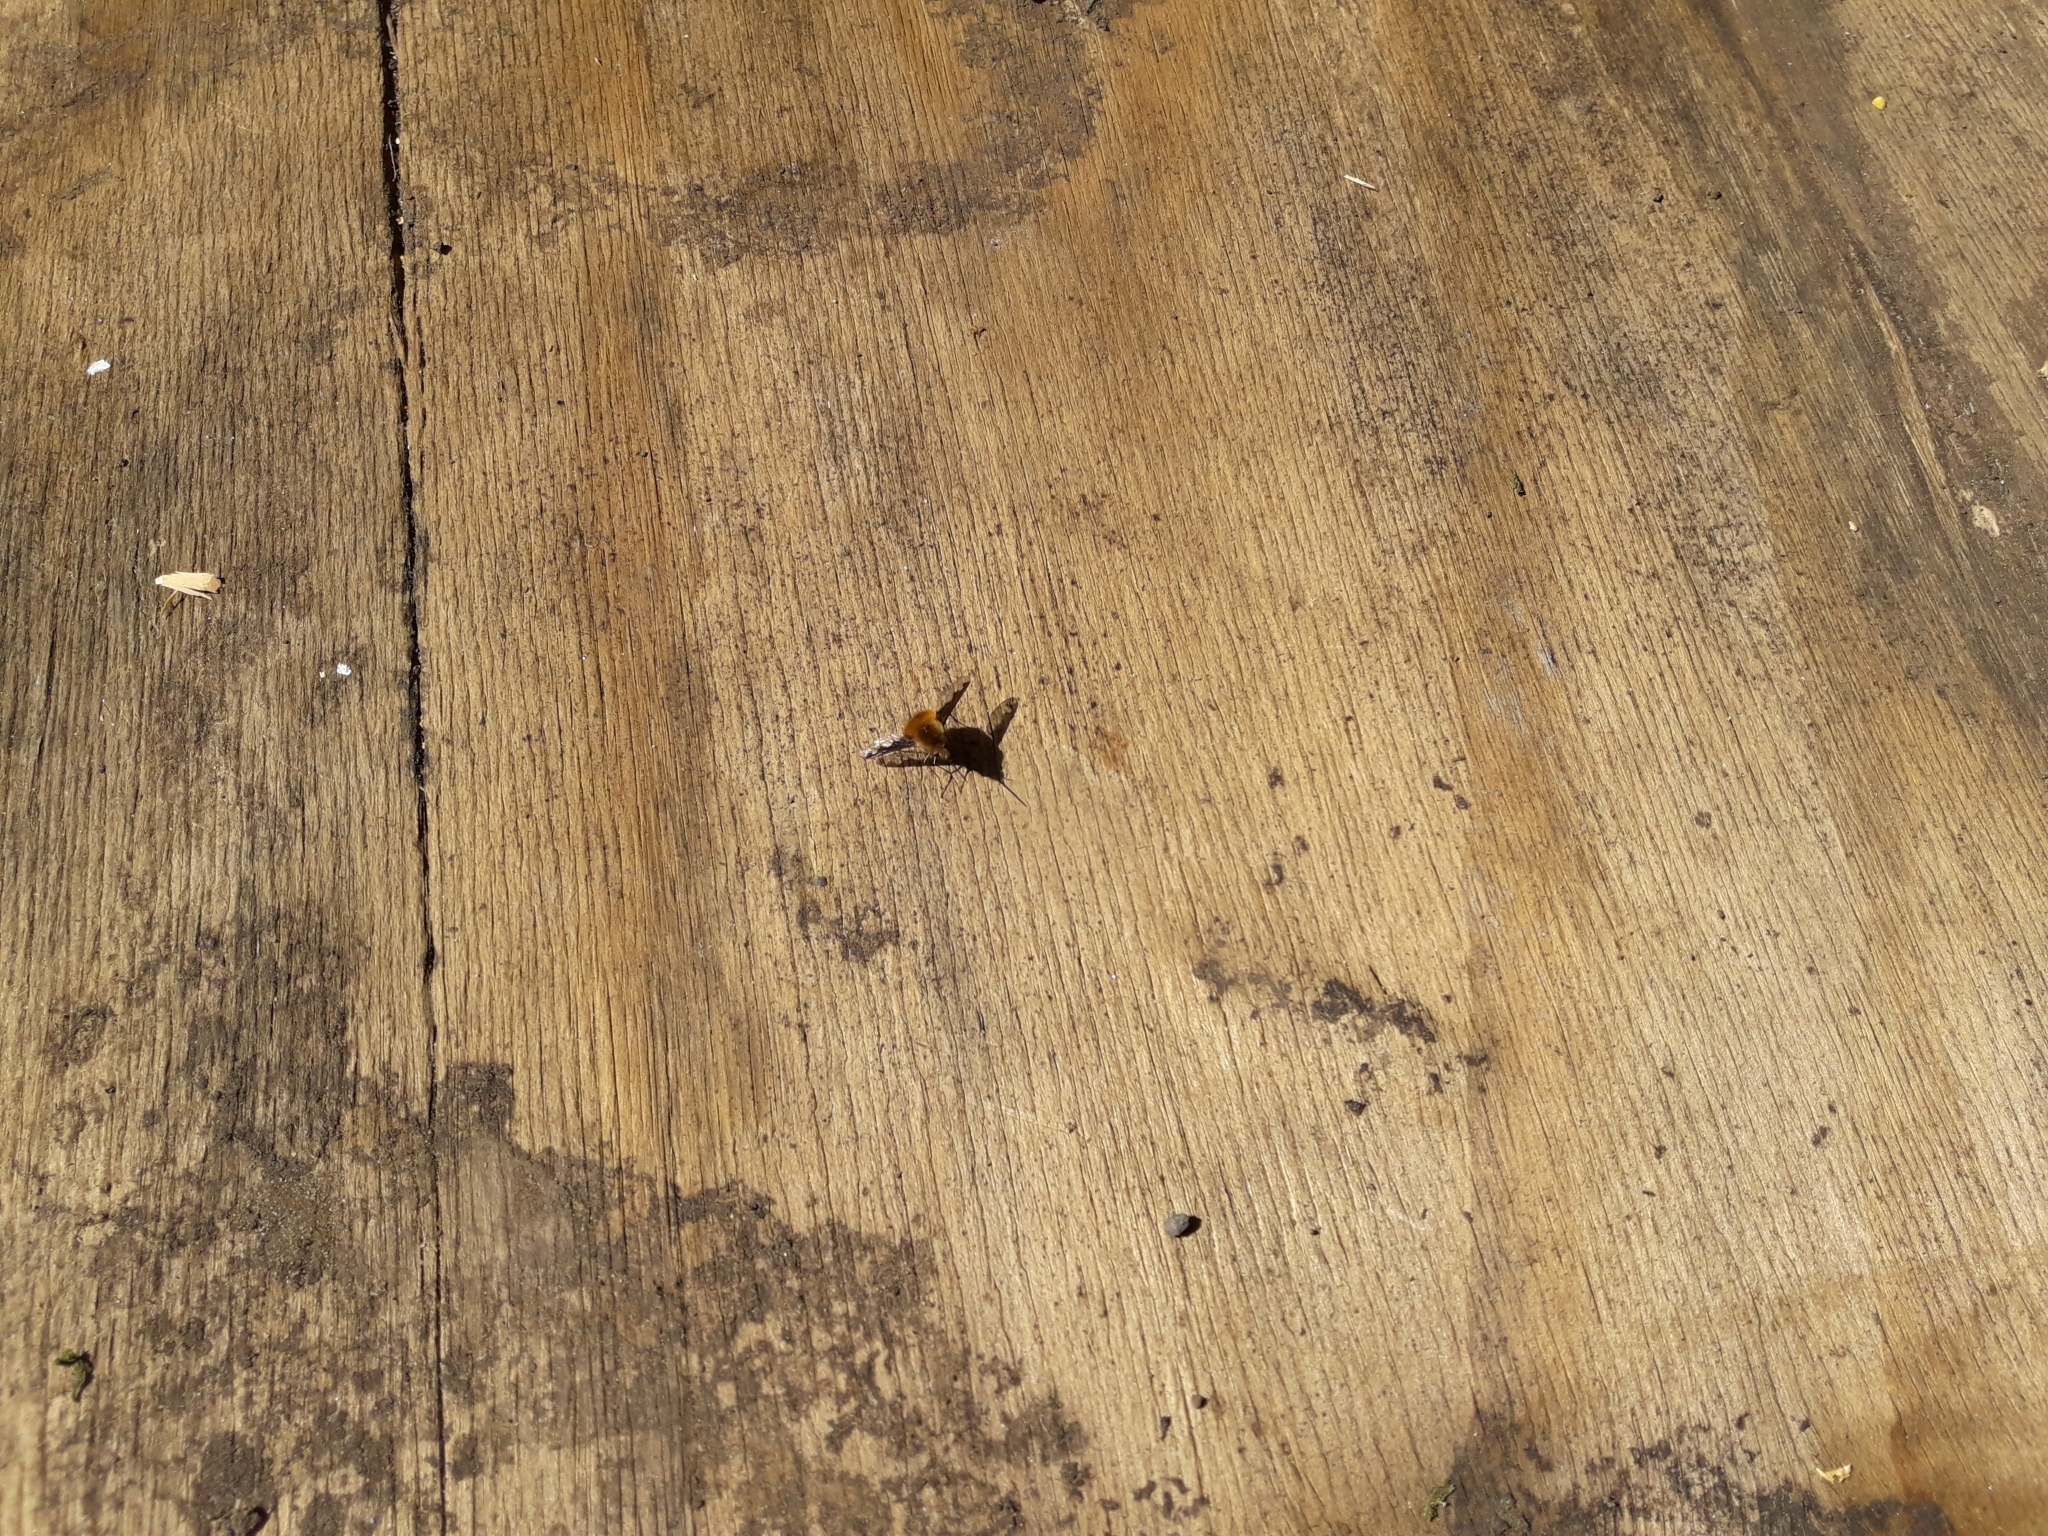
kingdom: Animalia
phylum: Arthropoda
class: Insecta
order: Diptera
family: Bombyliidae
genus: Bombylius
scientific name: Bombylius major
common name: Bee fly
